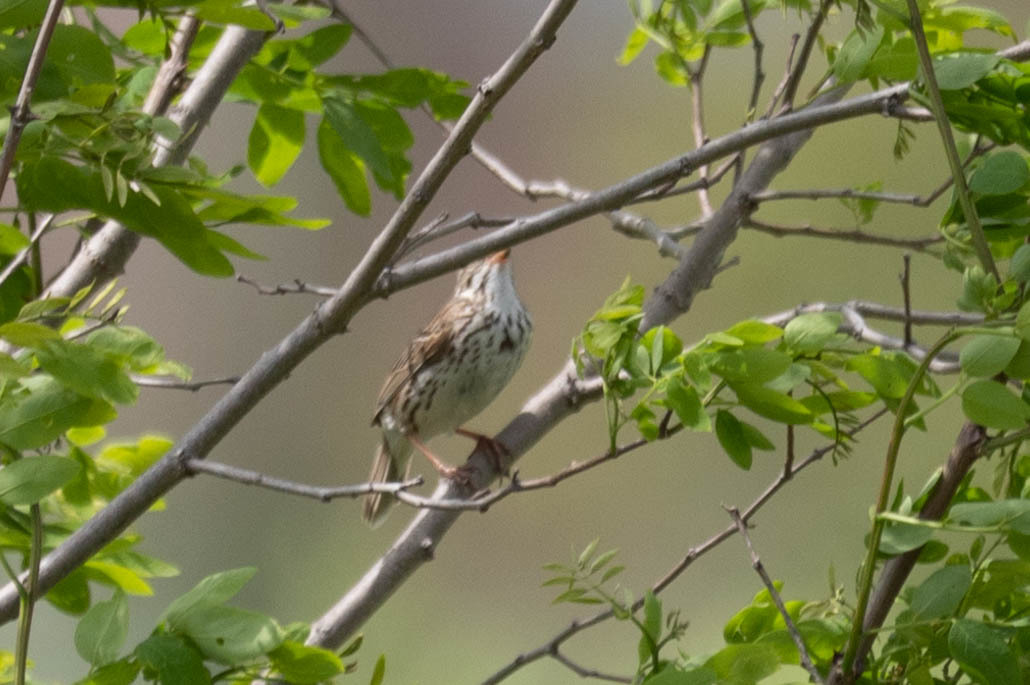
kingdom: Animalia
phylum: Chordata
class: Aves
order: Passeriformes
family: Passerellidae
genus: Passerculus
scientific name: Passerculus sandwichensis
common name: Savannah sparrow
